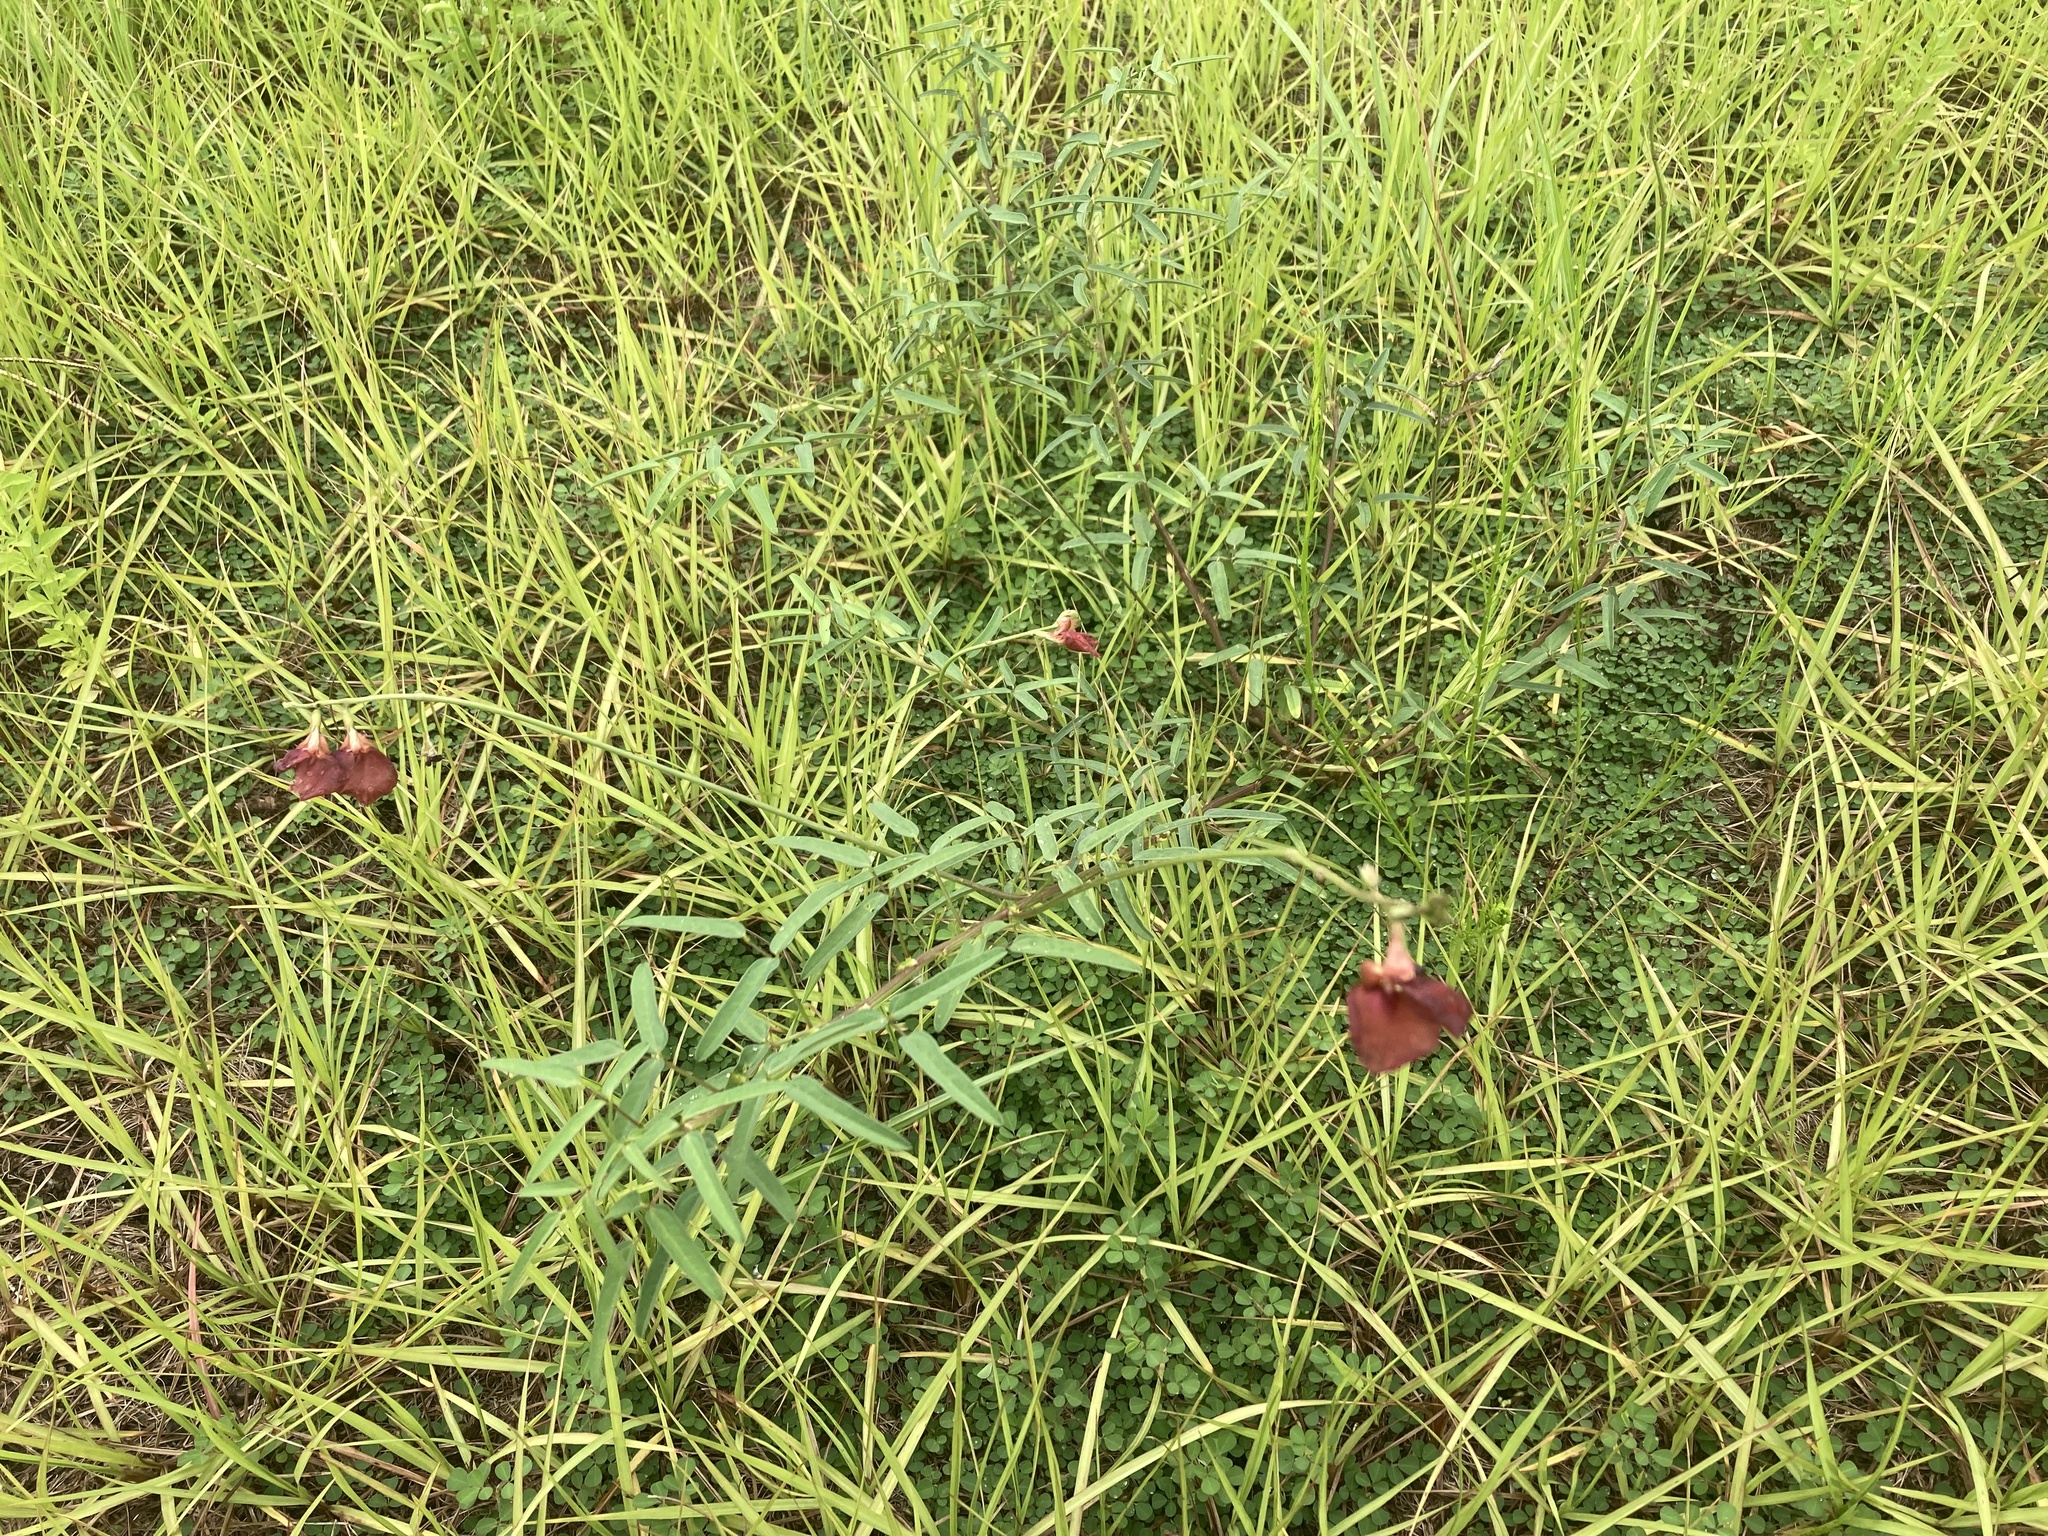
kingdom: Plantae
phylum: Tracheophyta
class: Magnoliopsida
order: Fabales
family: Fabaceae
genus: Macroptilium
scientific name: Macroptilium lathyroides
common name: Wild bushbean
